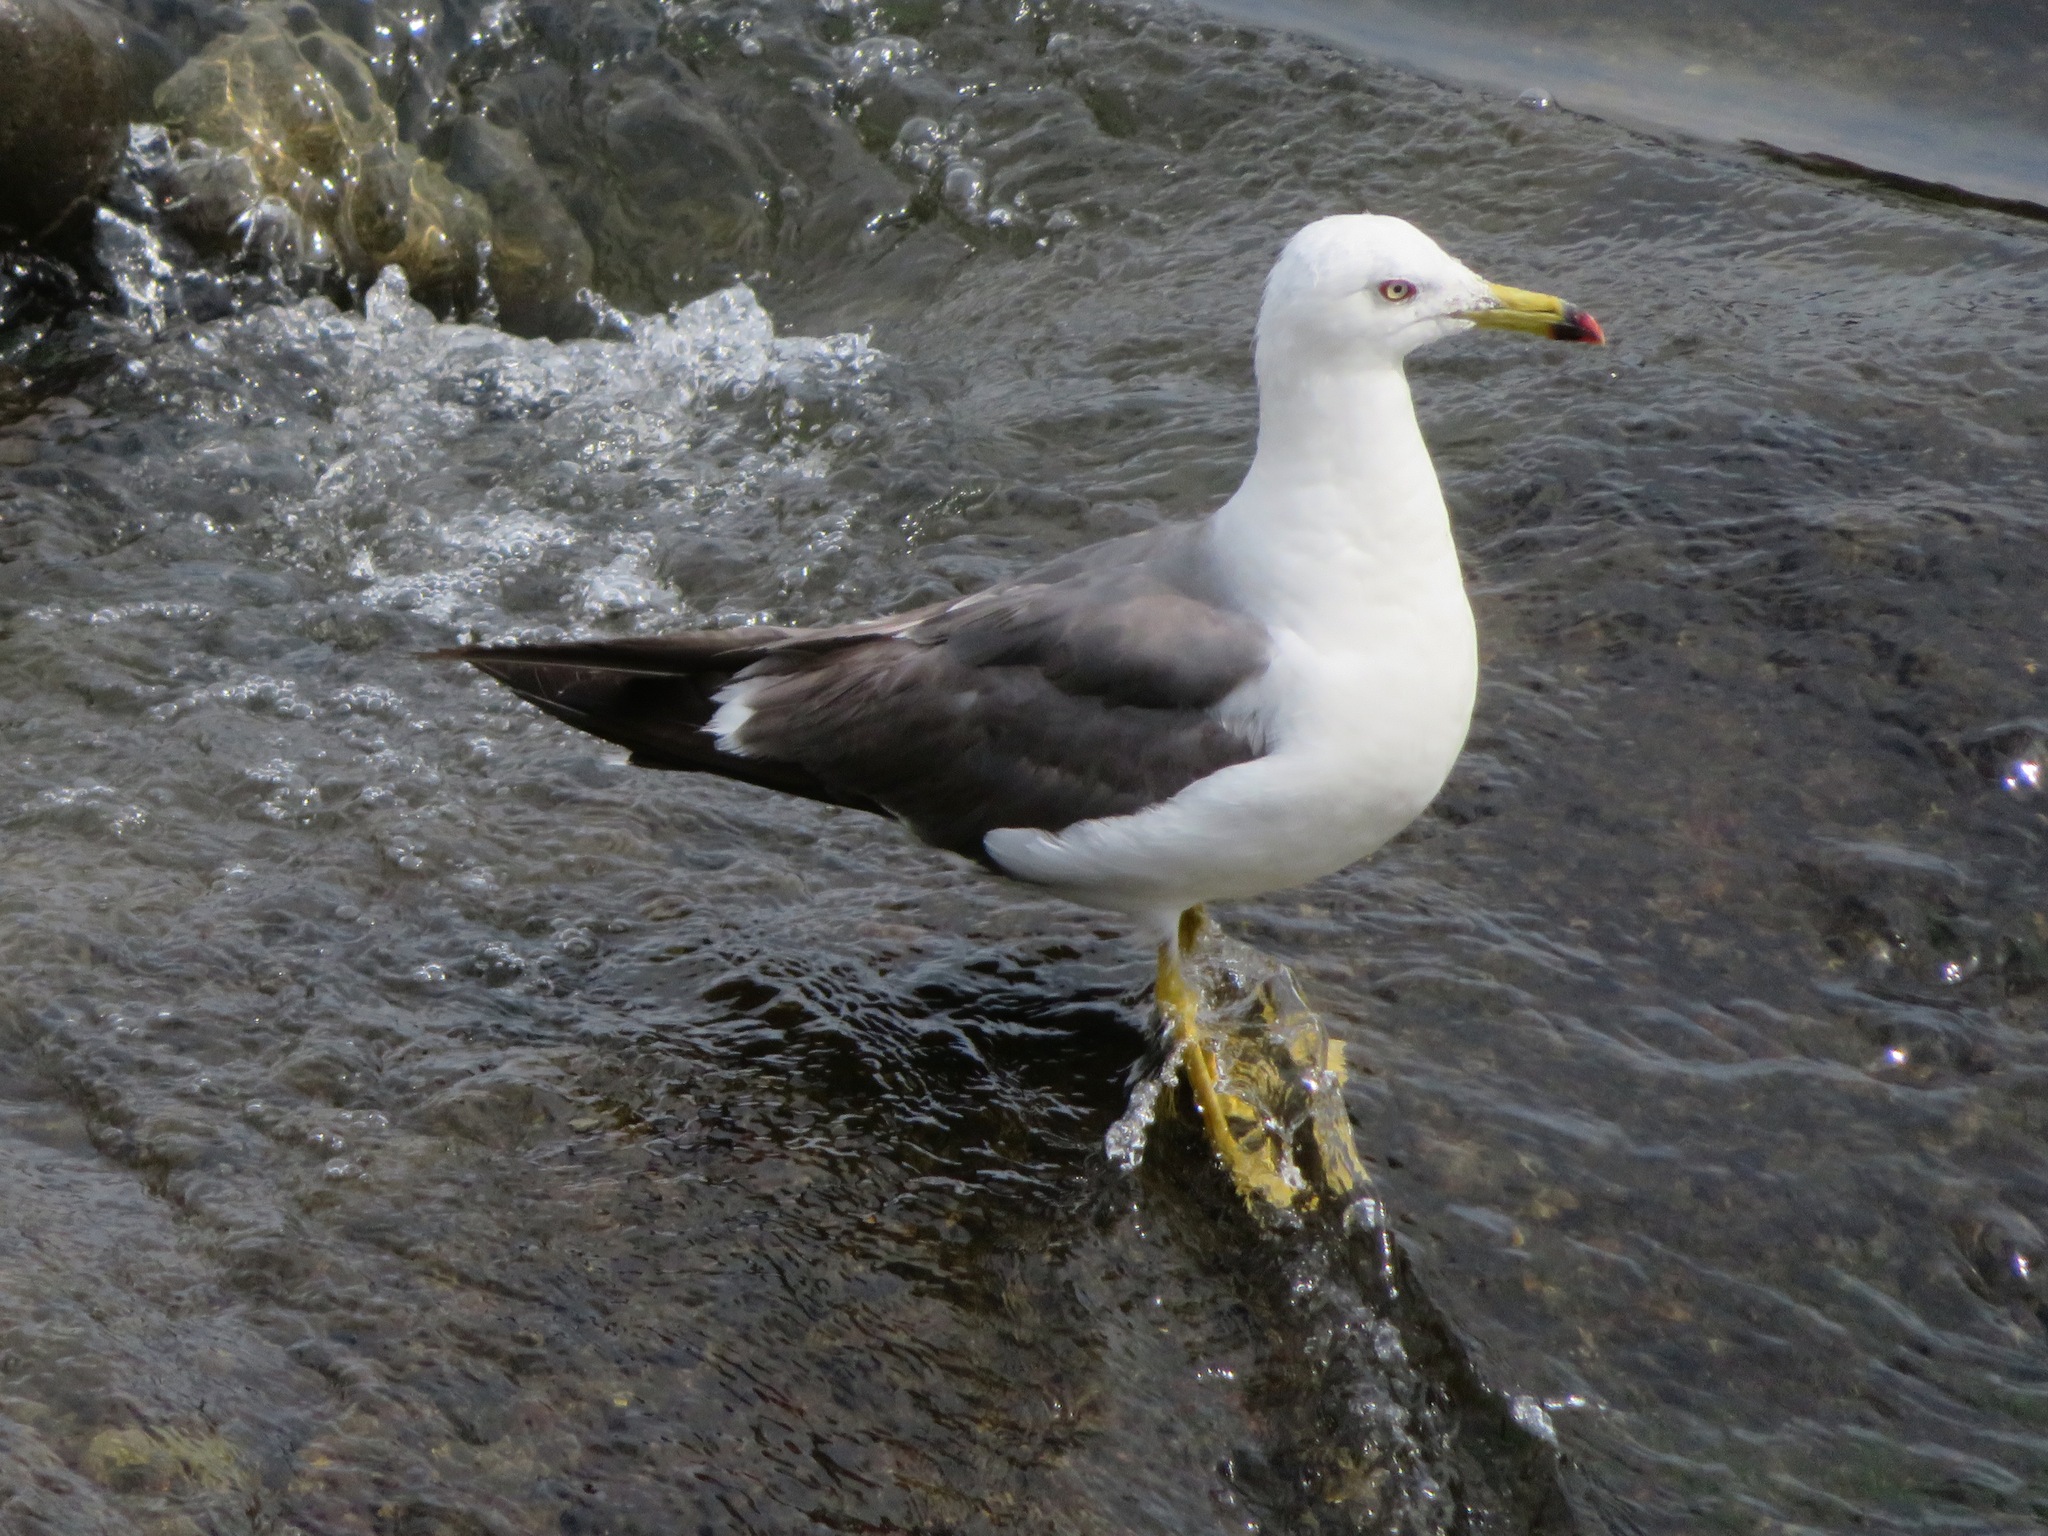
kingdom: Animalia
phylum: Chordata
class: Aves
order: Charadriiformes
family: Laridae
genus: Larus
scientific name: Larus crassirostris
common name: Black-tailed gull
